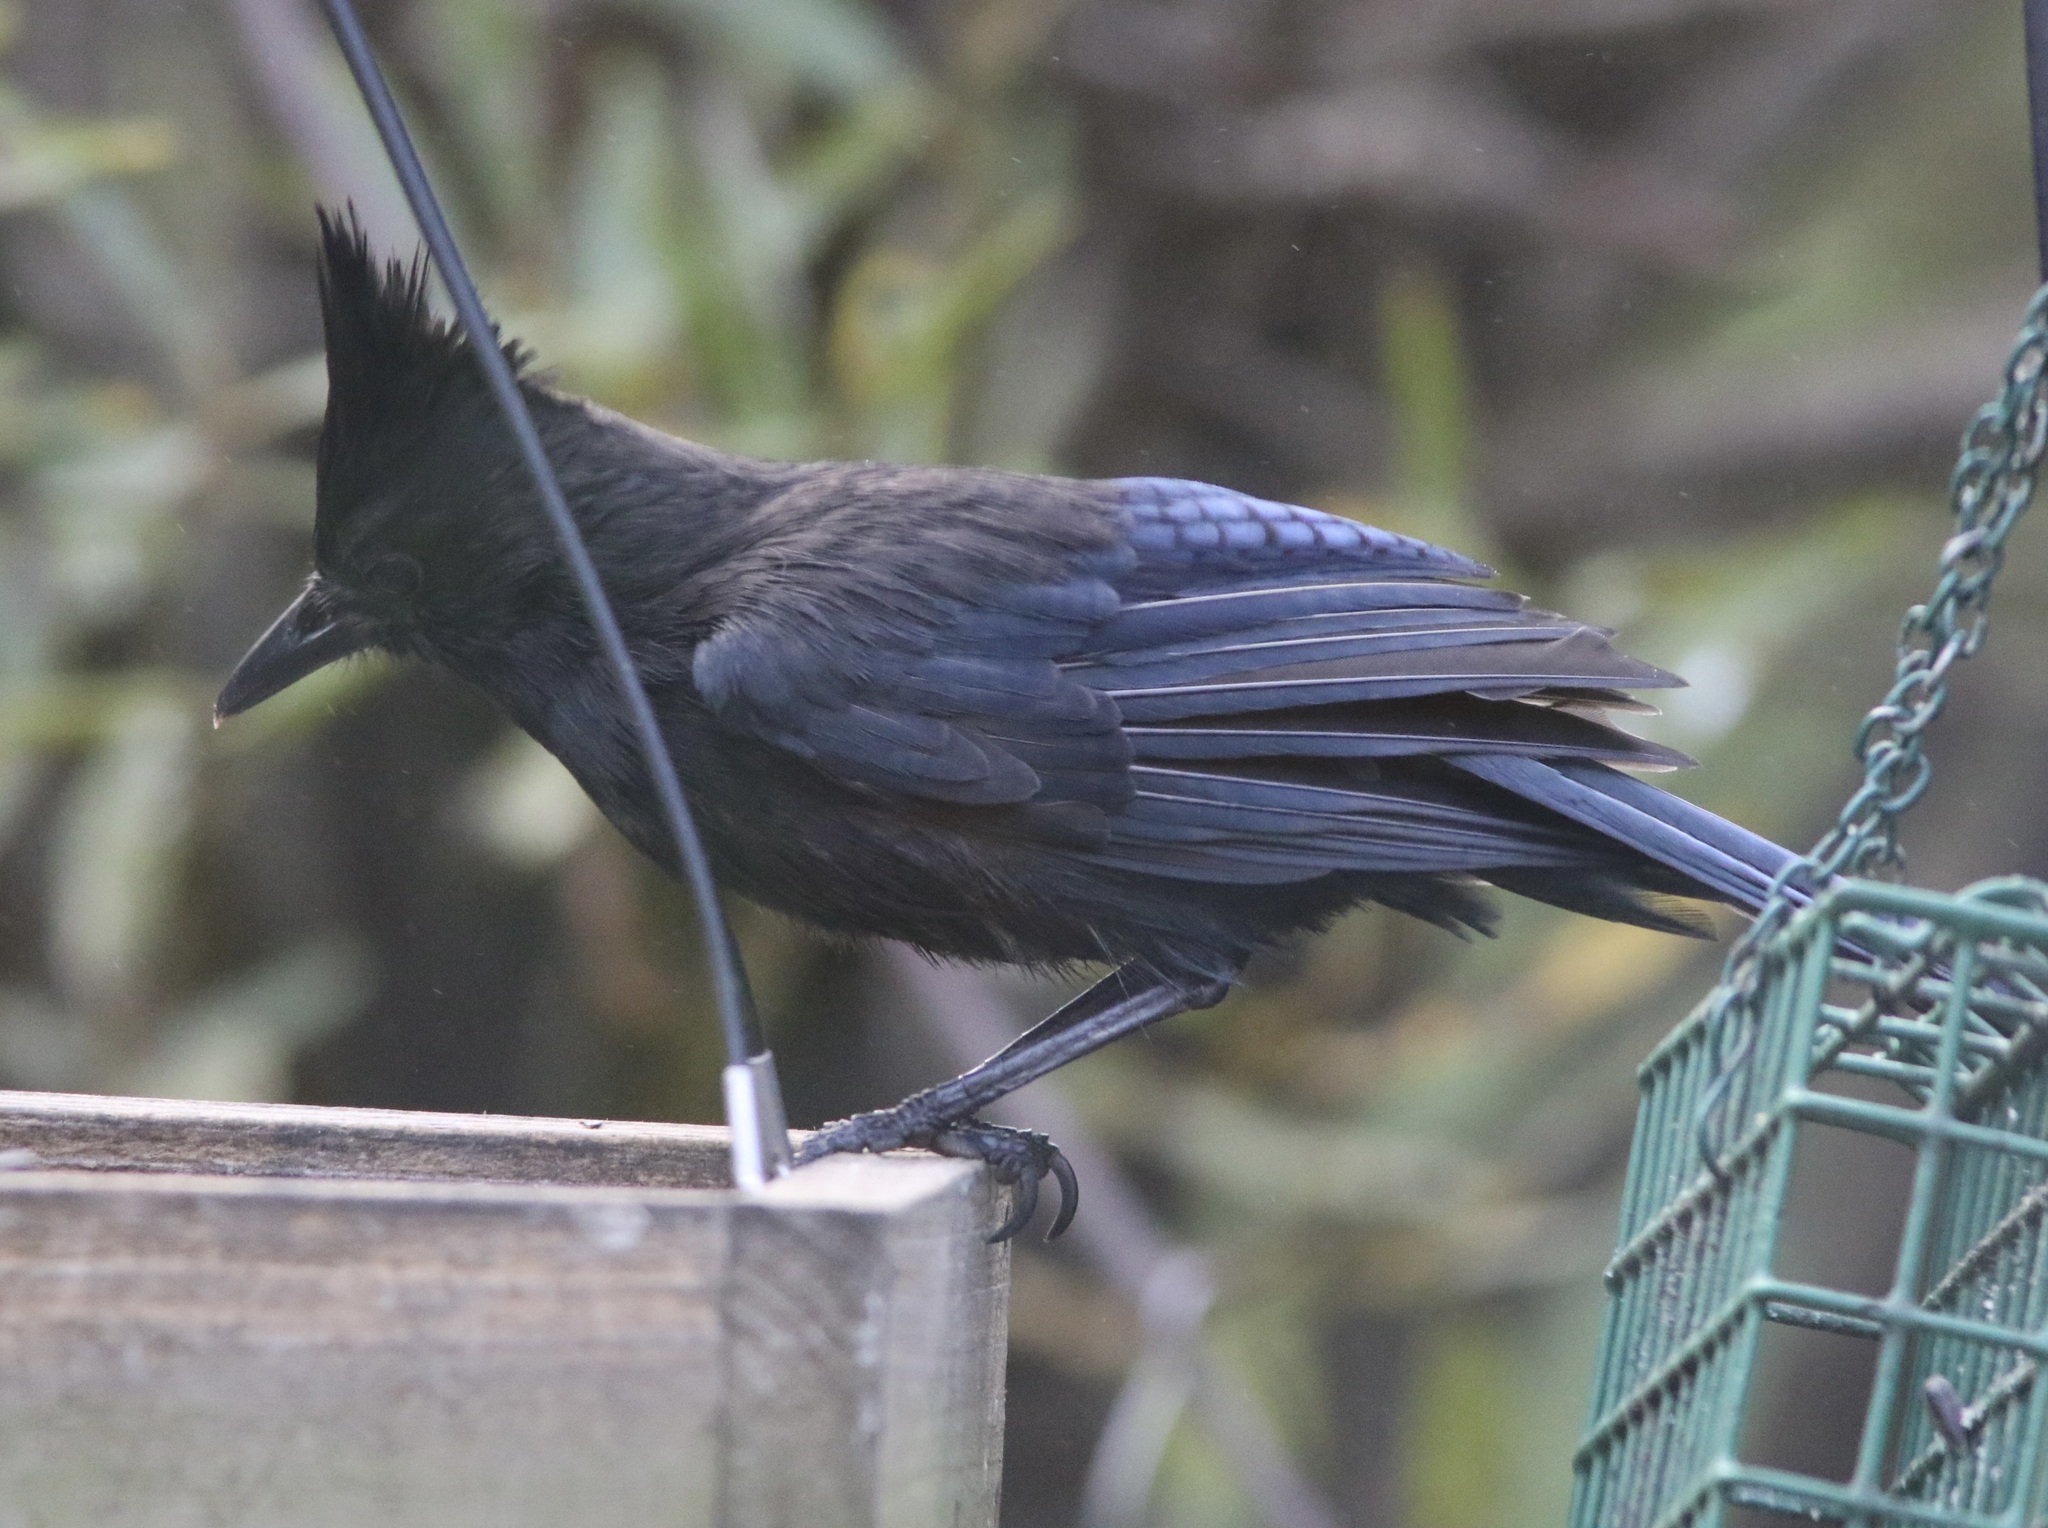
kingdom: Animalia
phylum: Chordata
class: Aves
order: Passeriformes
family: Corvidae
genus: Cyanocitta
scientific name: Cyanocitta stelleri
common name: Steller's jay
